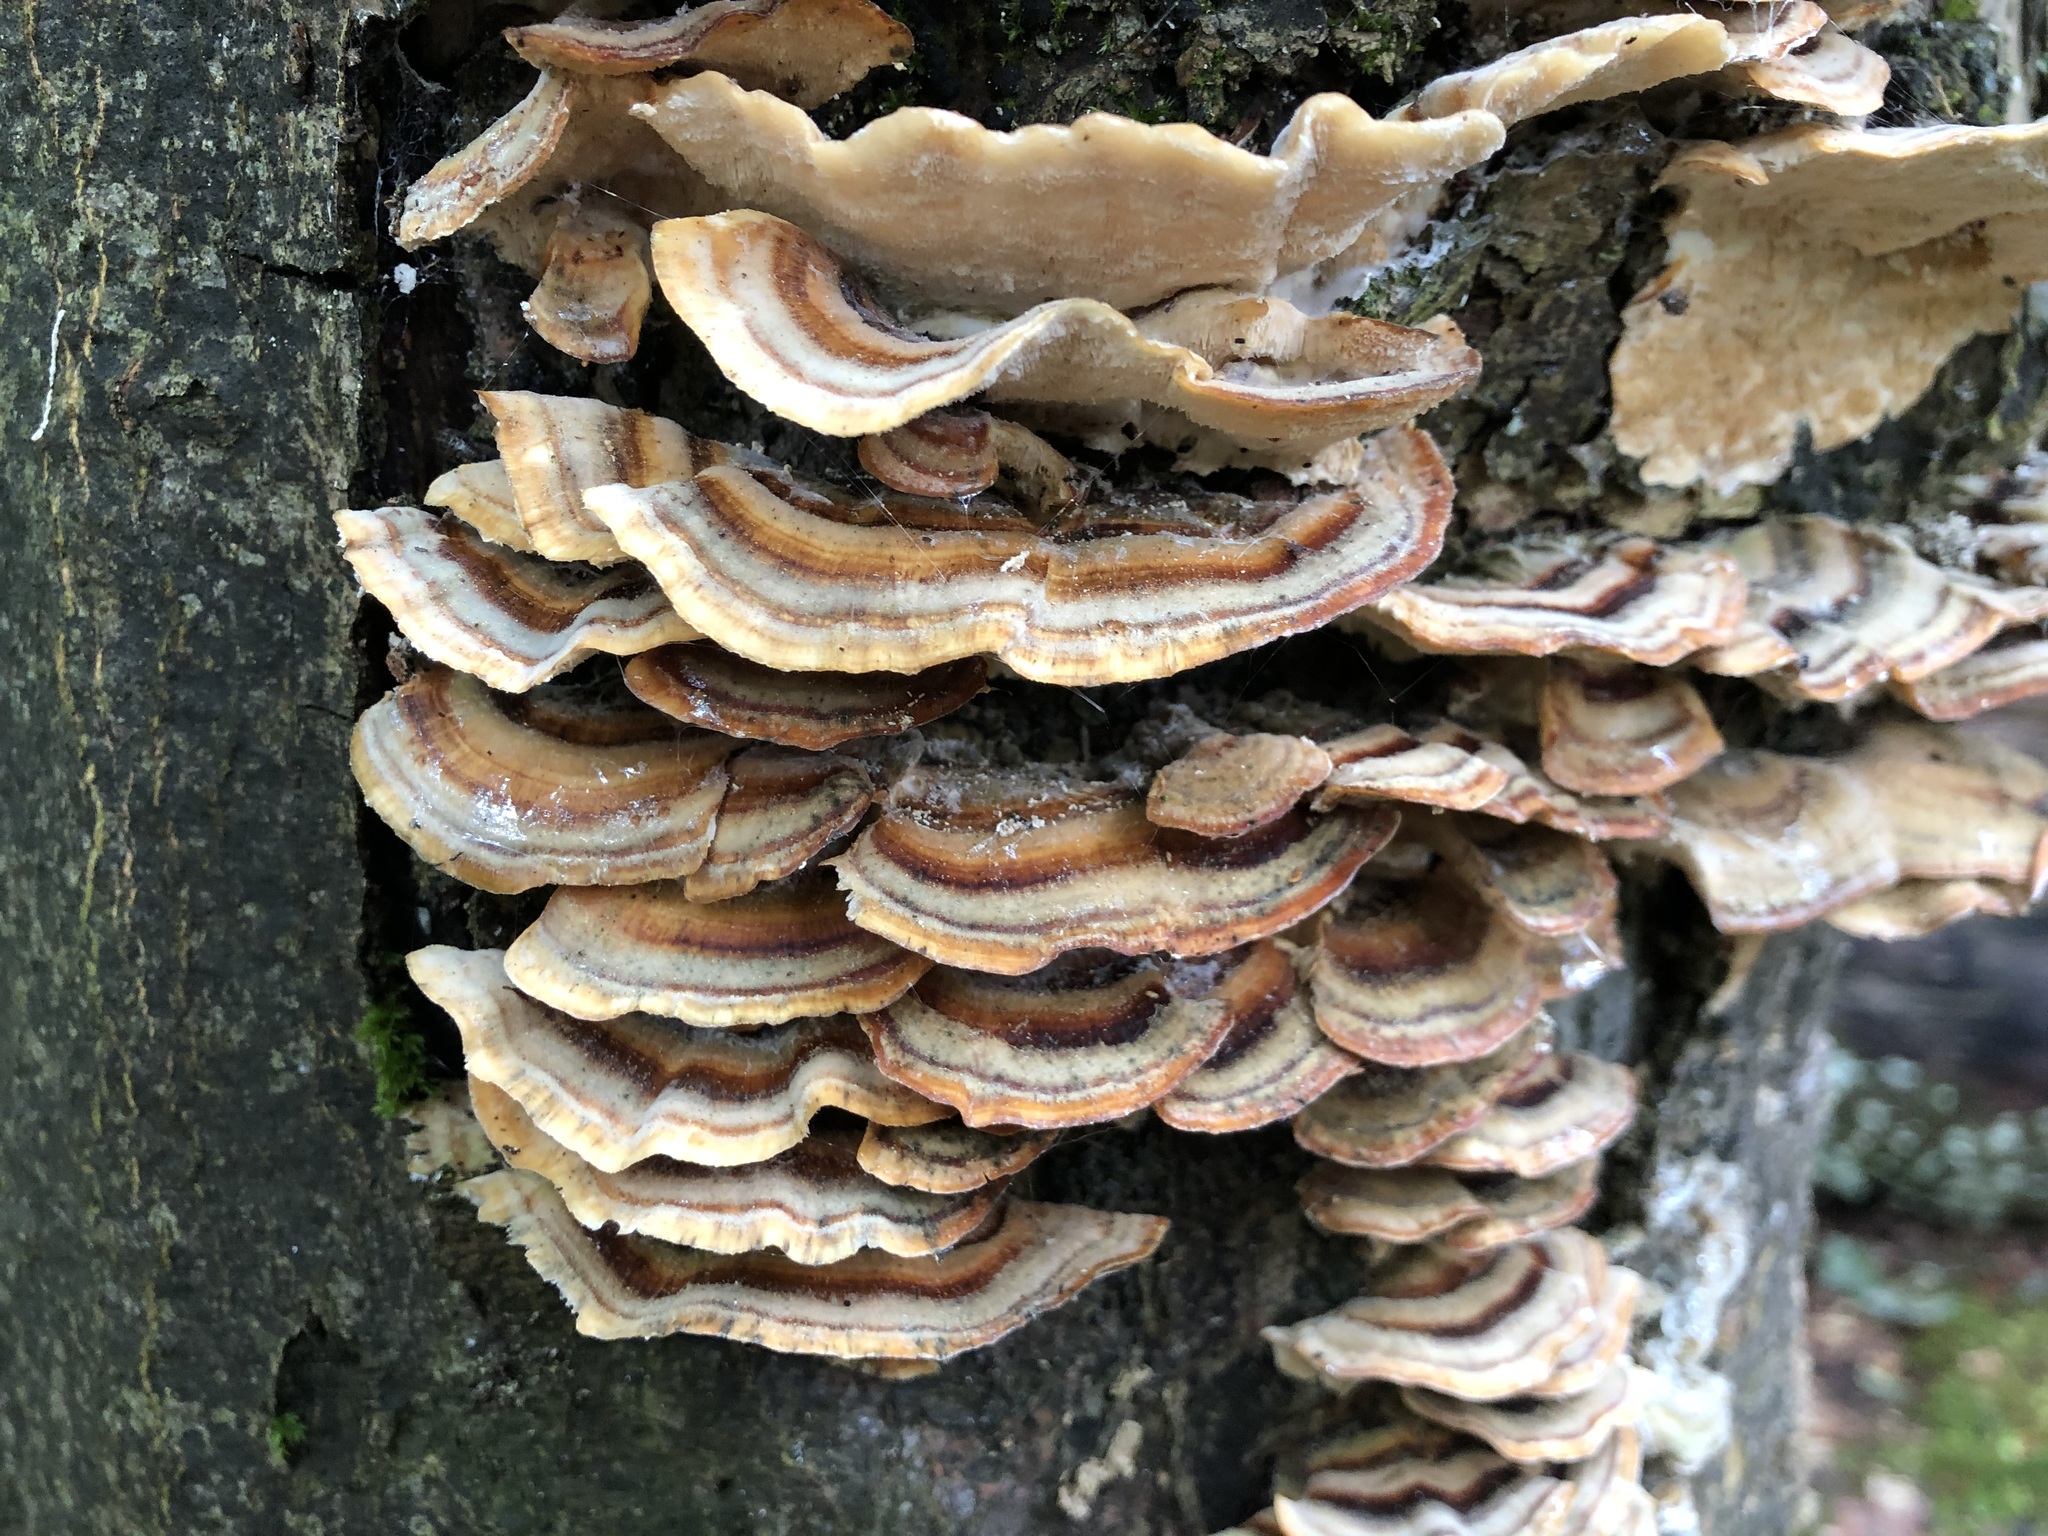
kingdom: Fungi
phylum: Basidiomycota
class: Agaricomycetes
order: Polyporales
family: Polyporaceae
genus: Trametes
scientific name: Trametes versicolor
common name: Turkeytail
